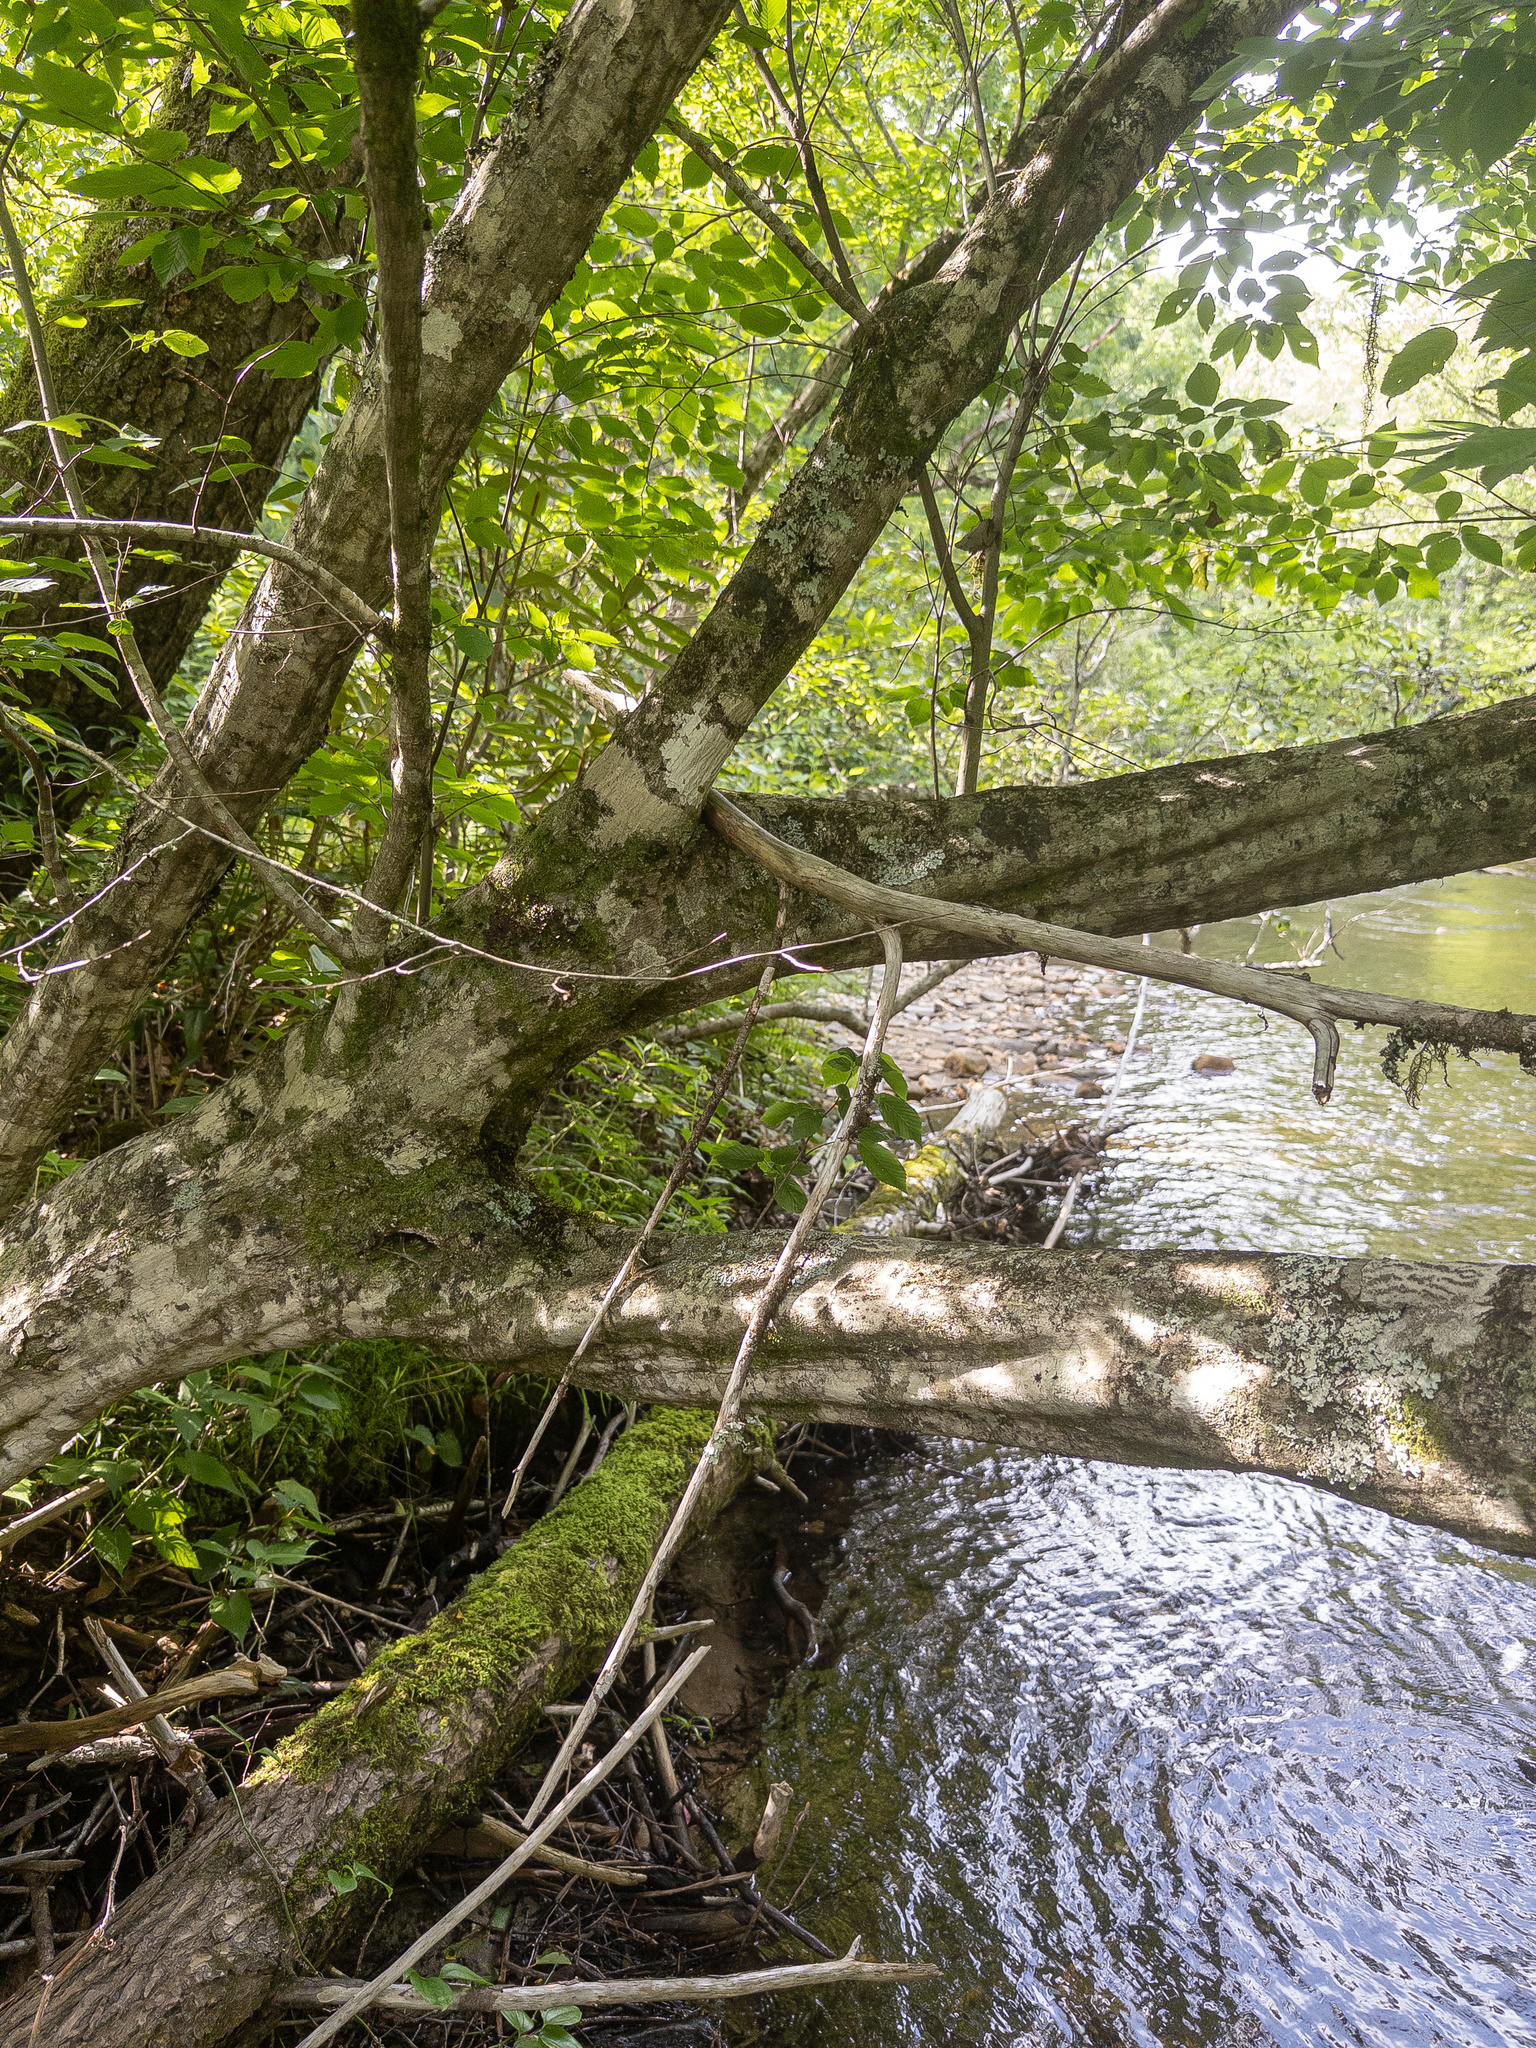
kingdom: Plantae
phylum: Tracheophyta
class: Magnoliopsida
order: Fagales
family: Betulaceae
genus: Carpinus
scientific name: Carpinus caroliniana
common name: American hornbeam
